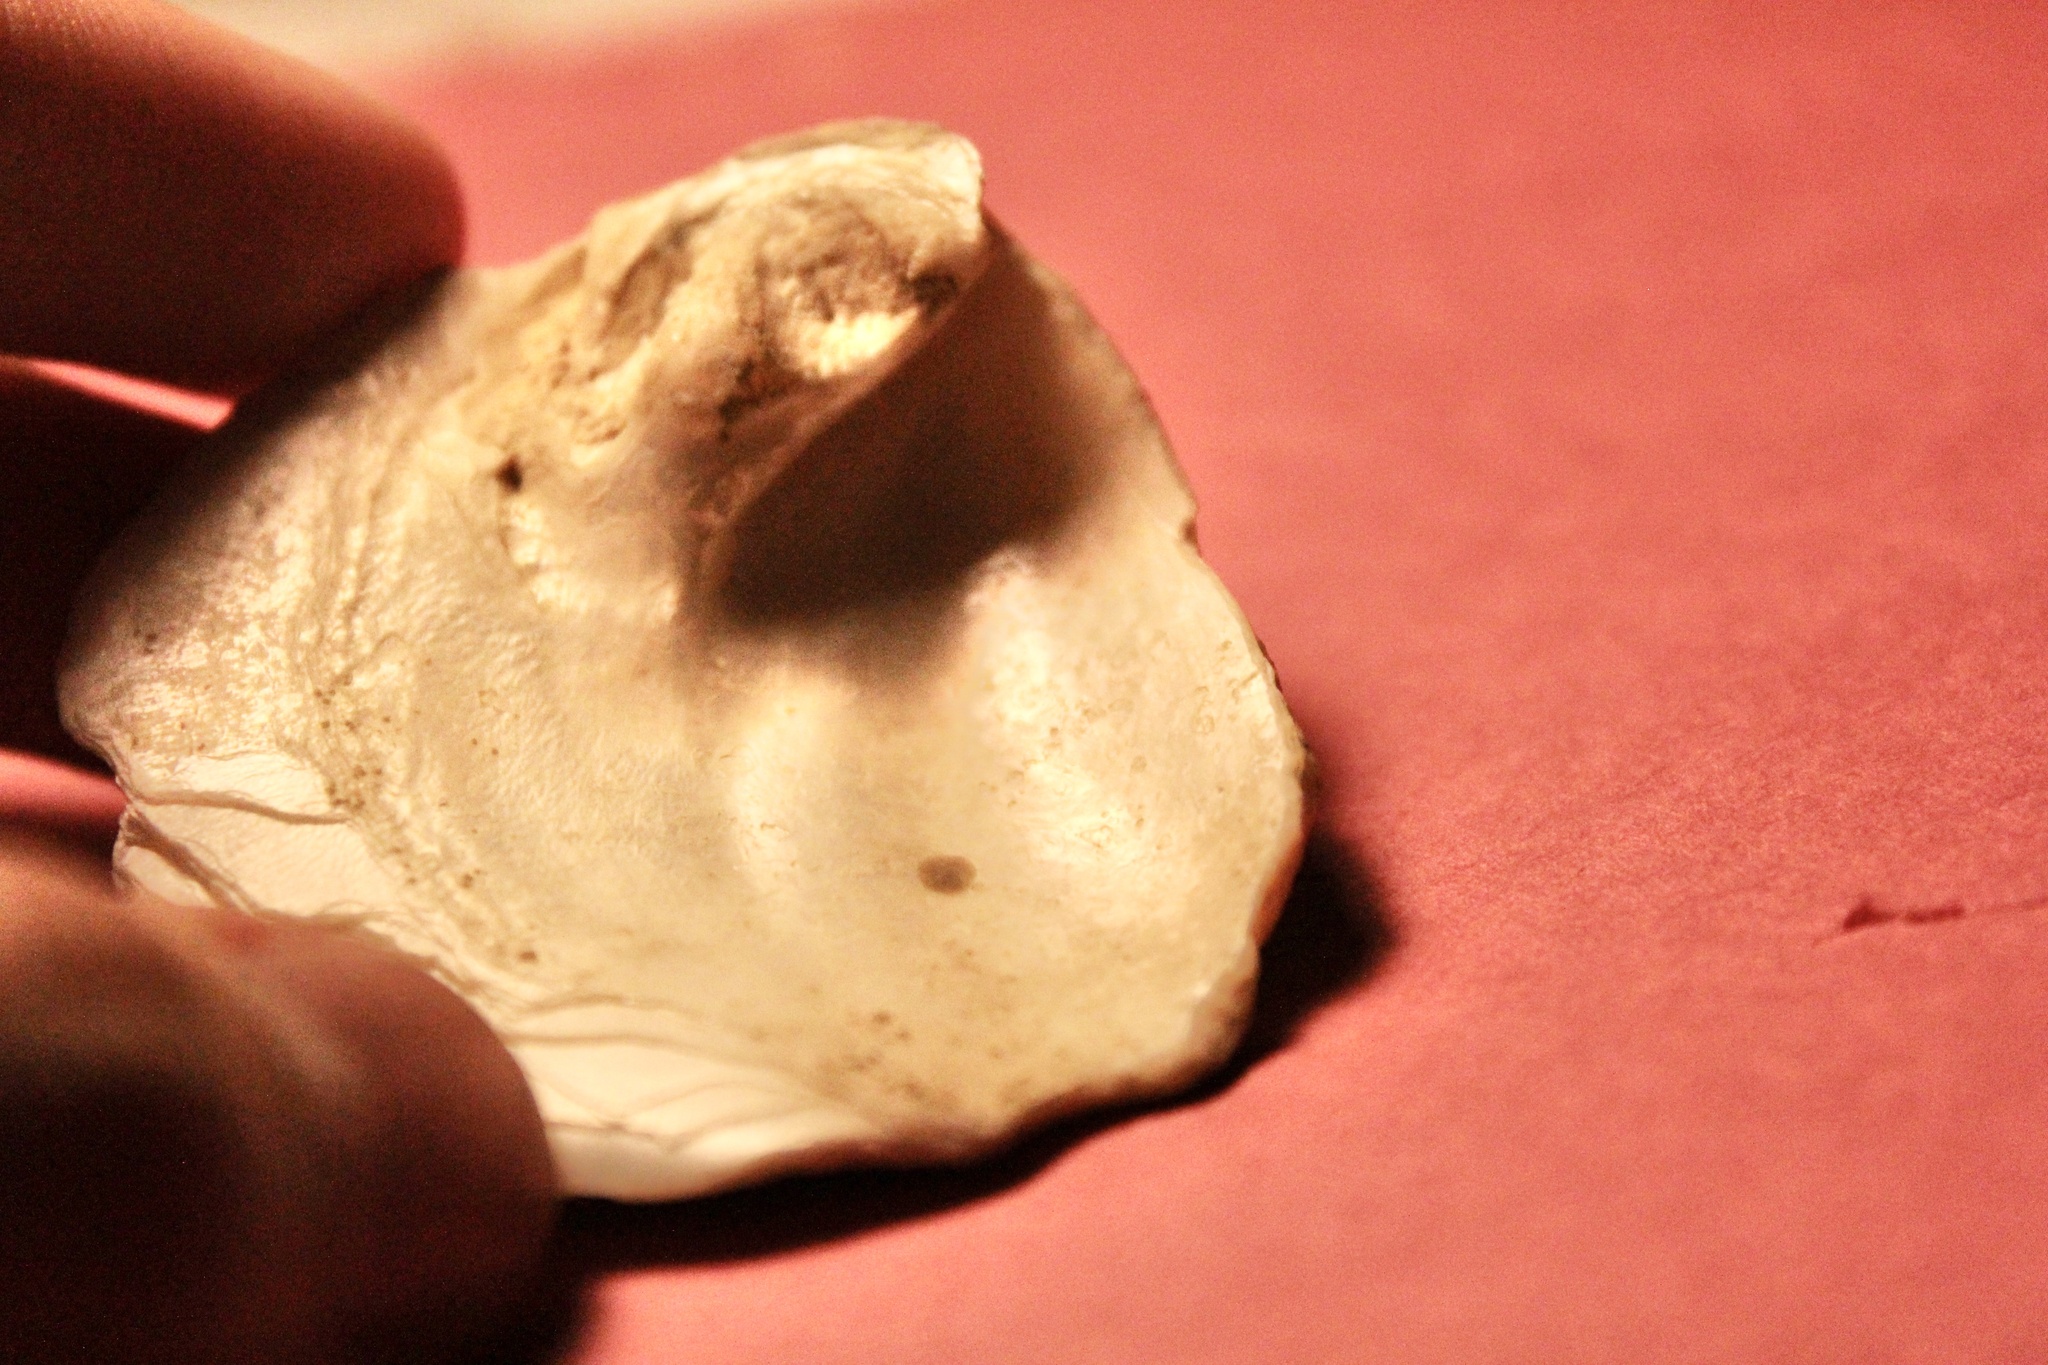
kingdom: Animalia
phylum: Mollusca
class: Bivalvia
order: Unionida
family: Unionidae
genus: Theliderma
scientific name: Theliderma metanevra
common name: Monkeyface
